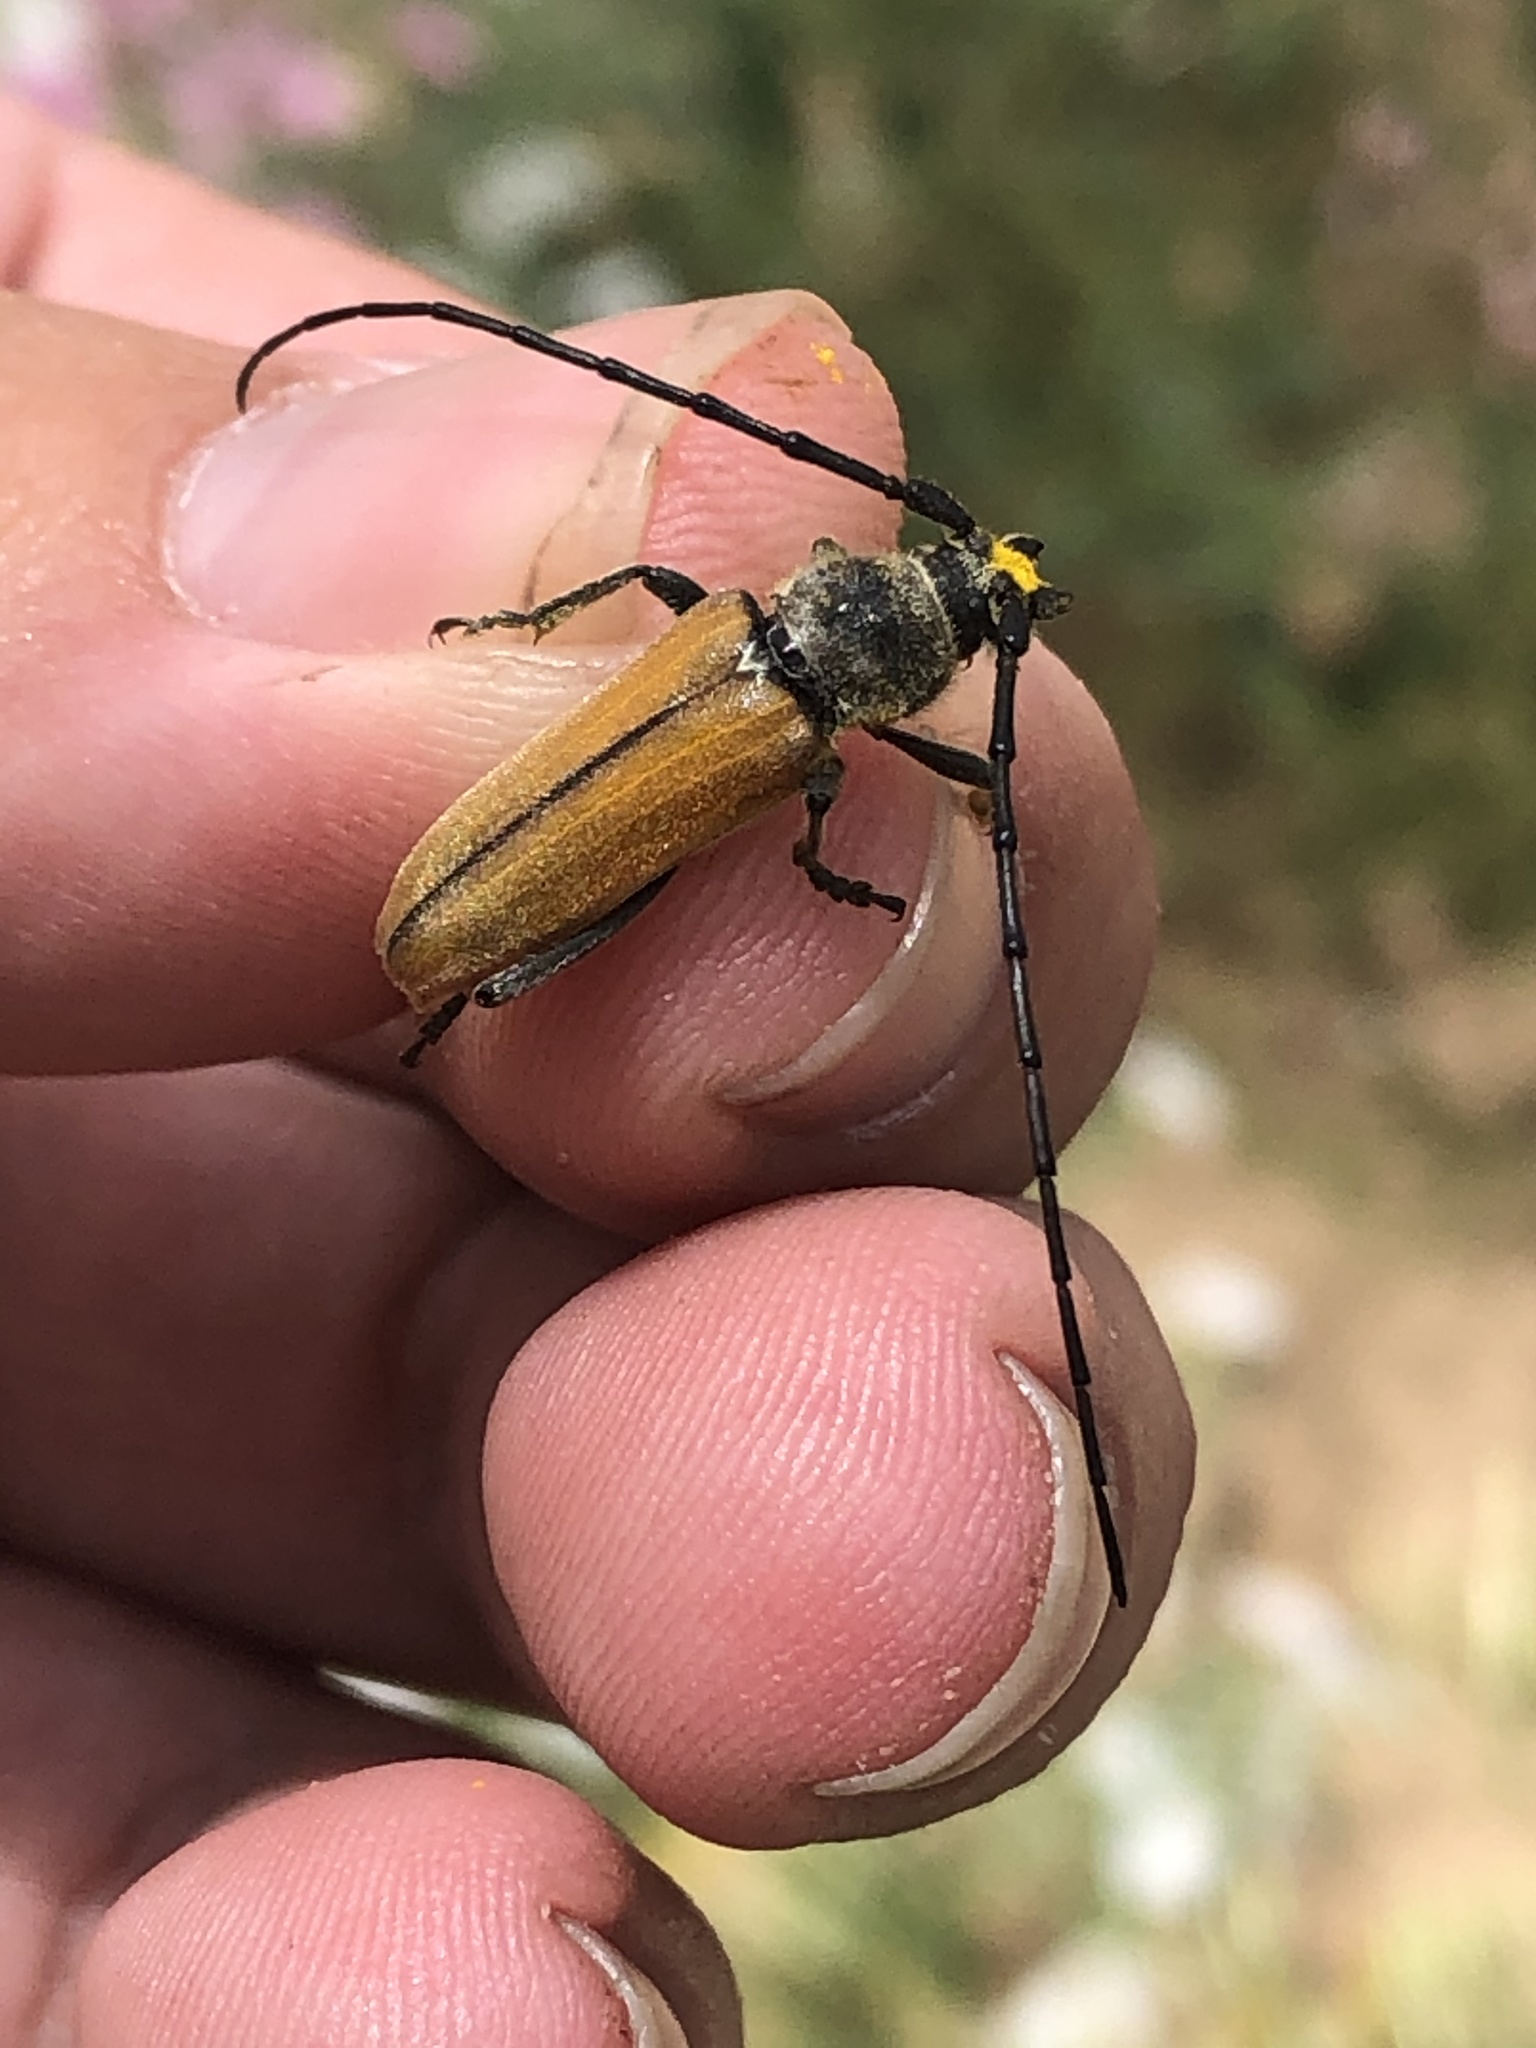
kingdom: Animalia
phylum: Arthropoda
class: Insecta
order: Coleoptera
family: Cerambycidae
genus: Crossidius
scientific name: Crossidius suturalis
